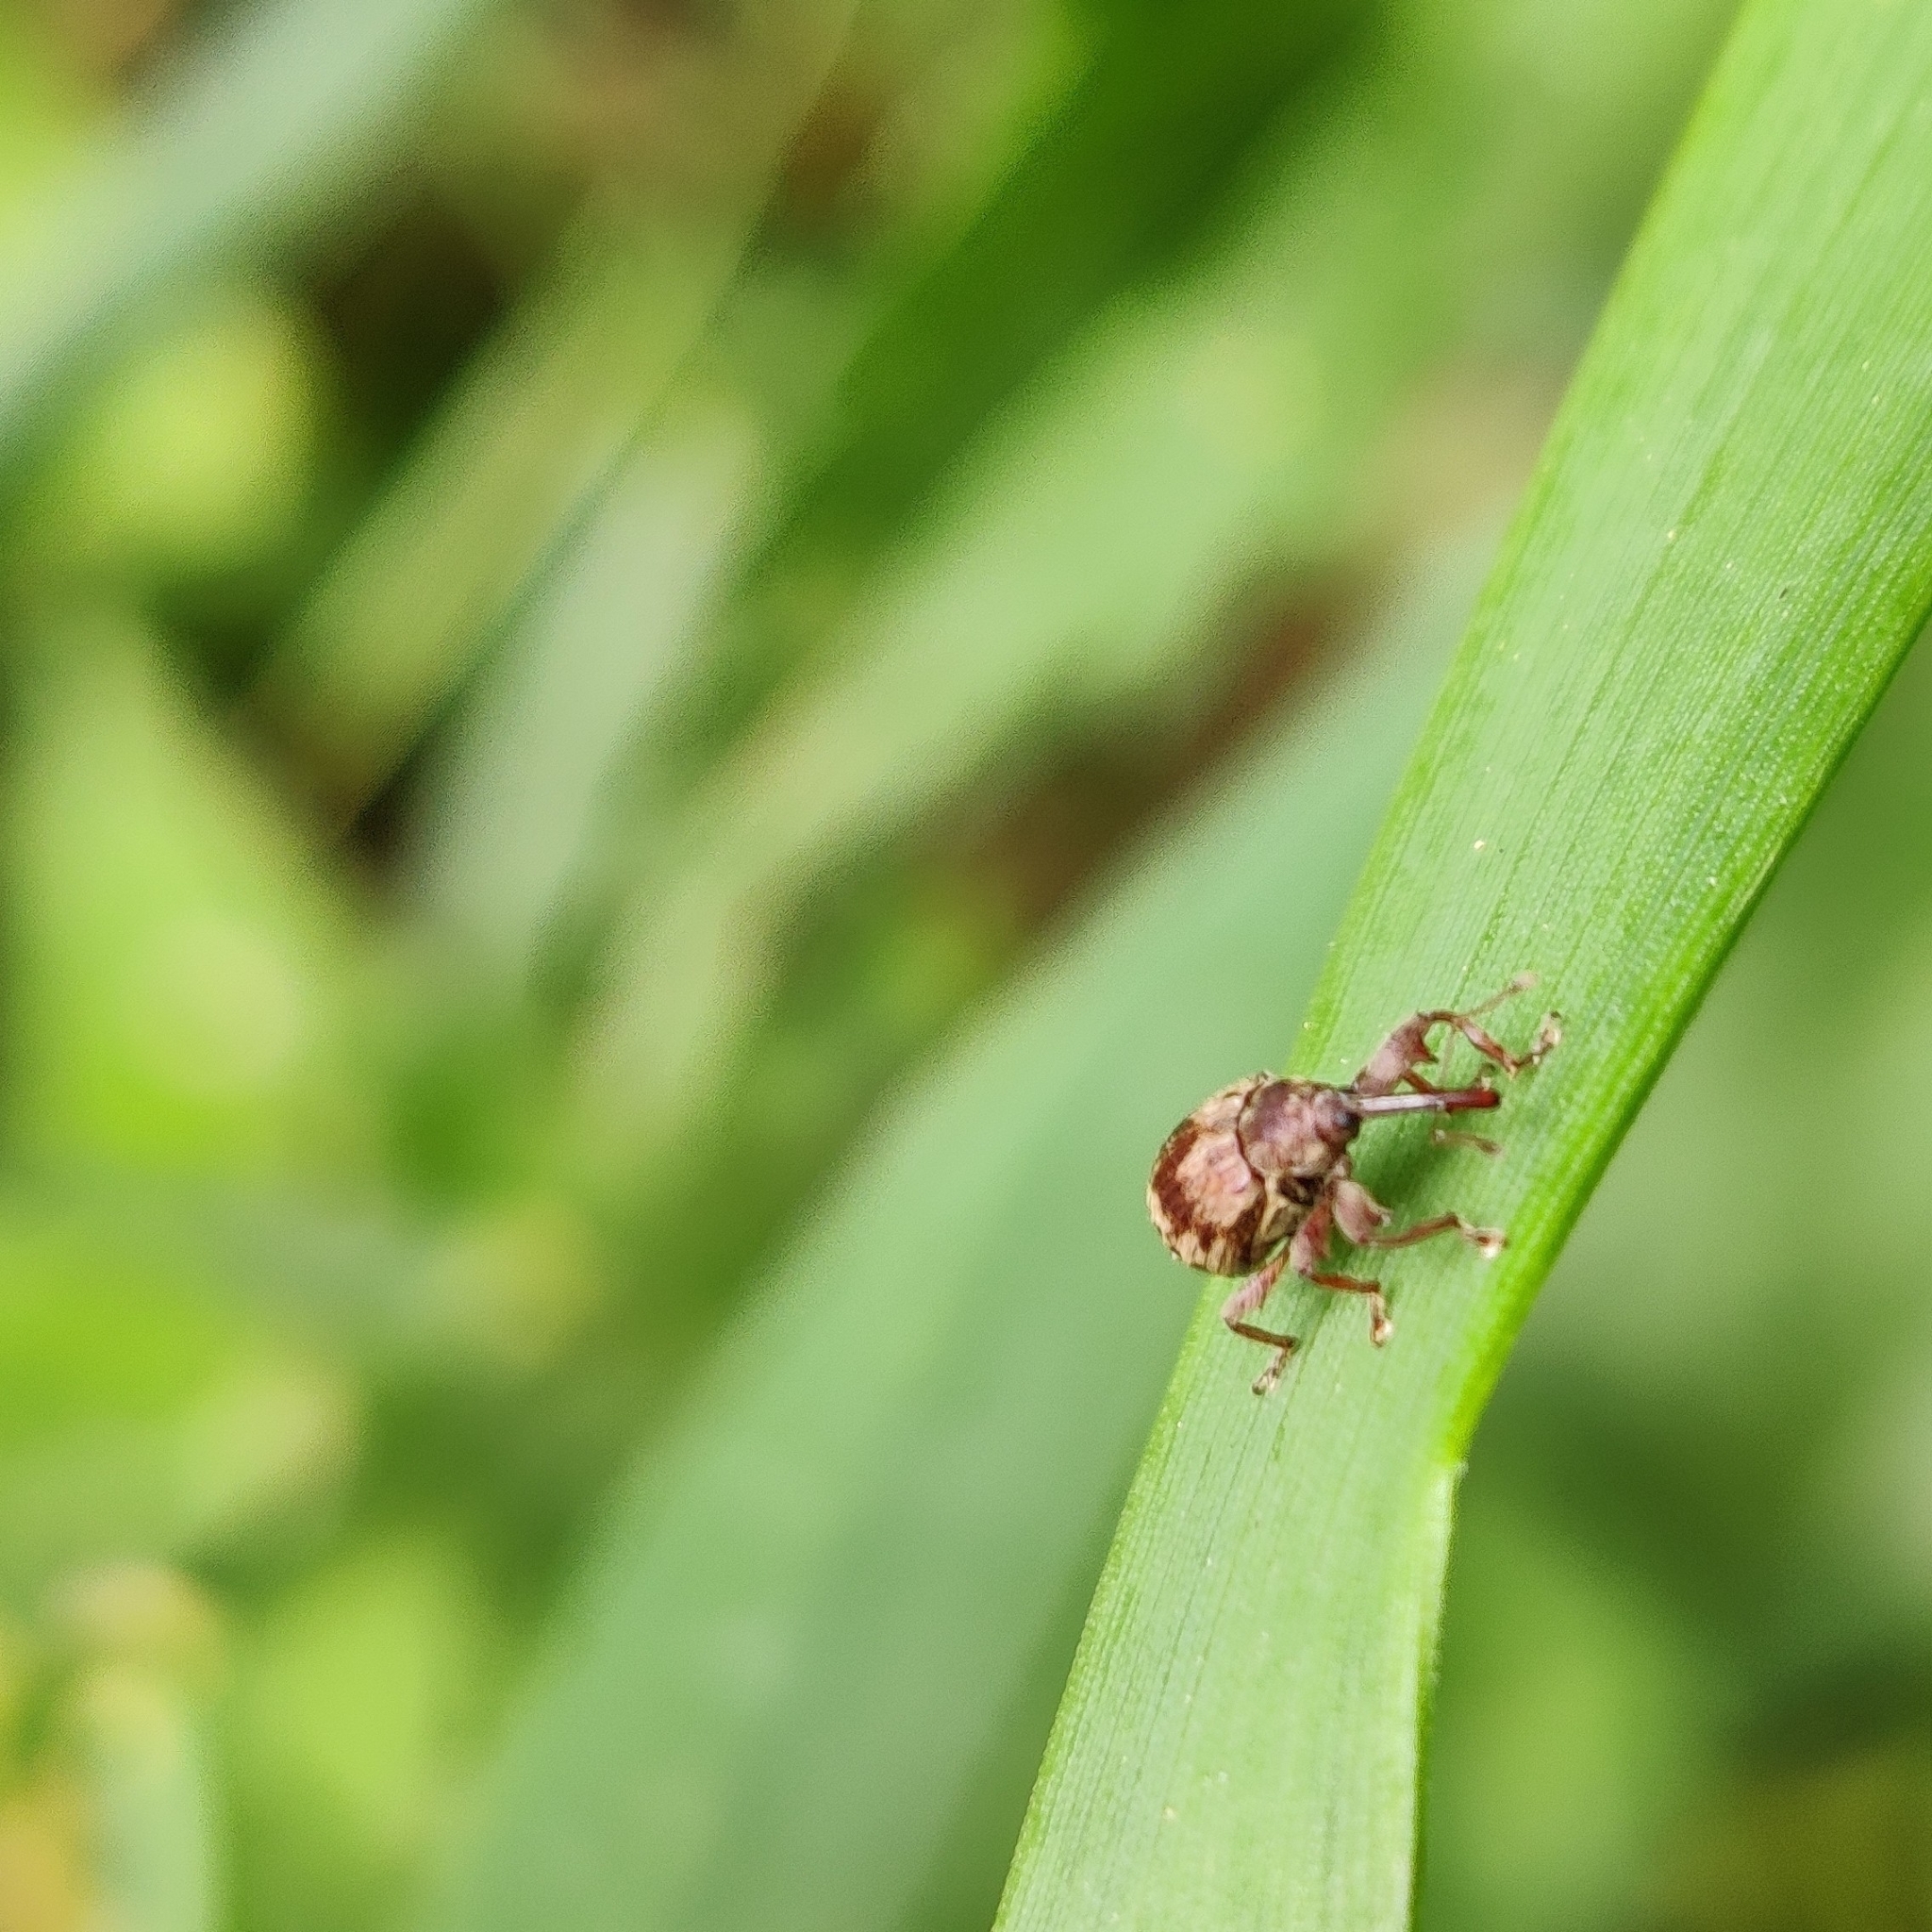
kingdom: Animalia
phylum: Arthropoda
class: Insecta
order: Coleoptera
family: Curculionidae
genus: Anthonomus
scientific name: Anthonomus rectirostris
